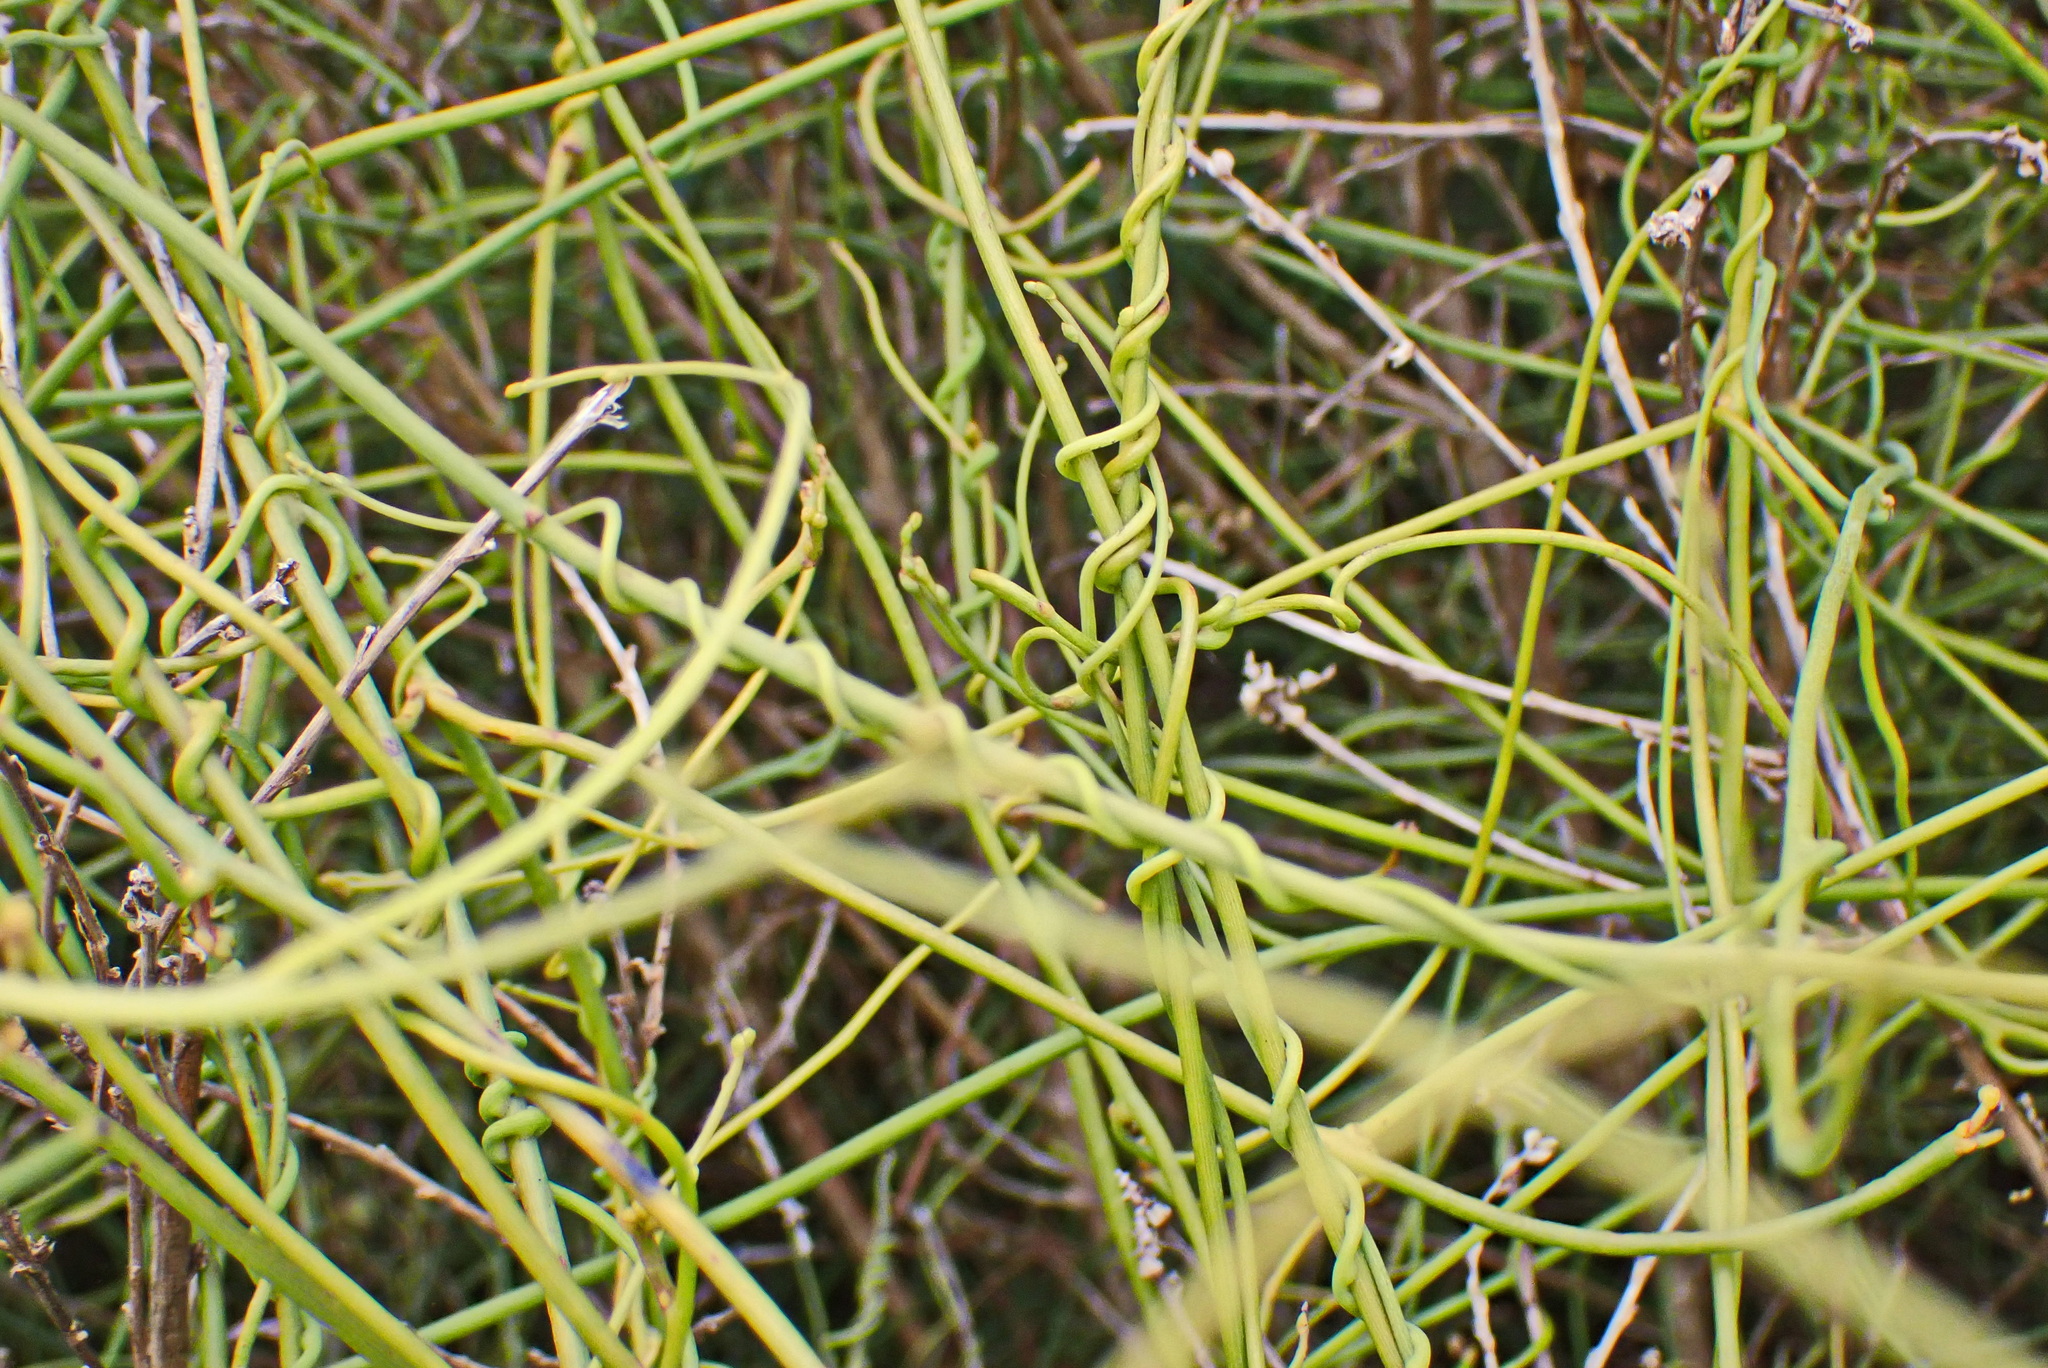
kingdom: Plantae
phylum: Tracheophyta
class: Magnoliopsida
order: Laurales
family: Lauraceae
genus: Cassytha
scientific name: Cassytha ciliolata
